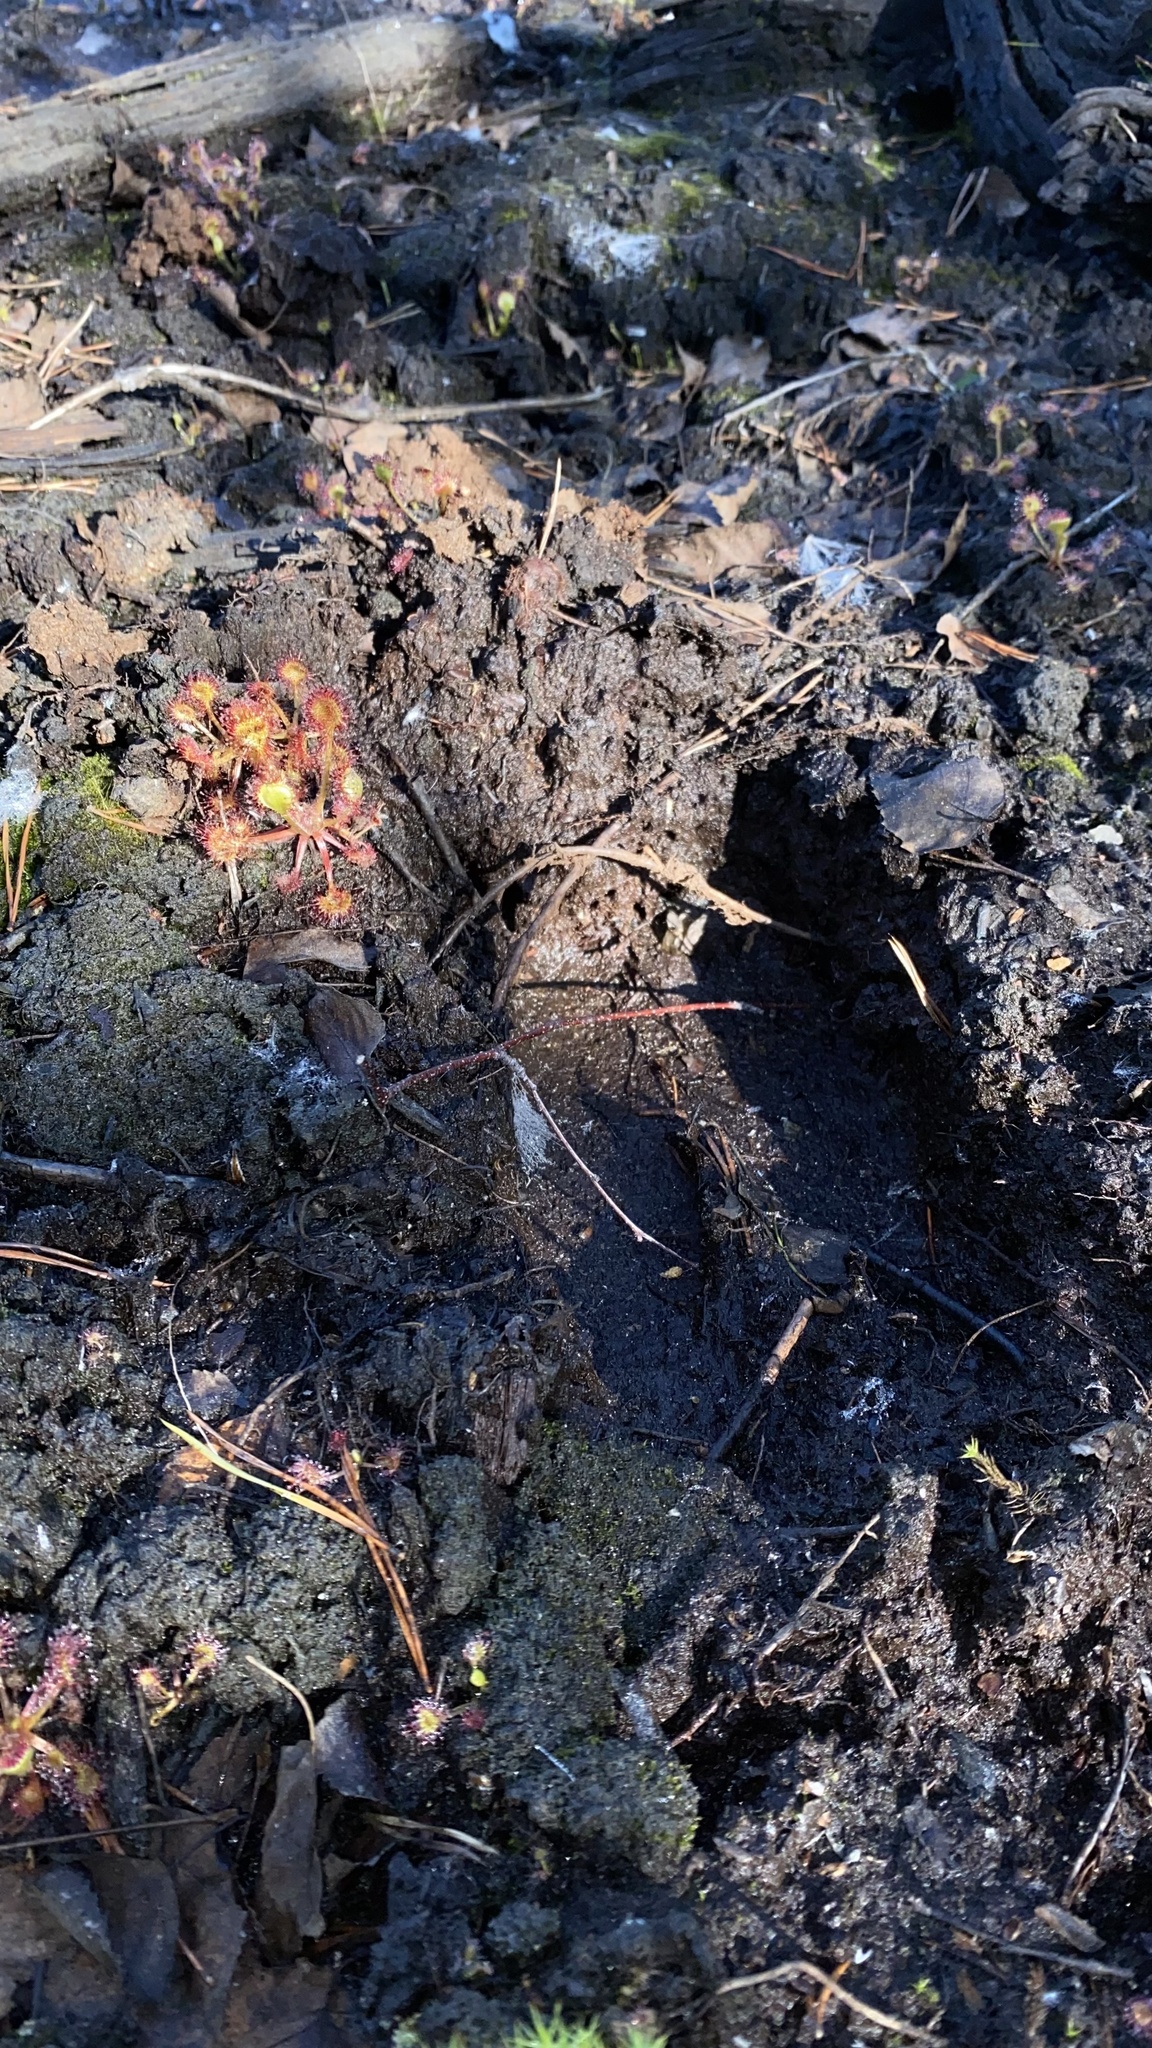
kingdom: Animalia
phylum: Chordata
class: Mammalia
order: Artiodactyla
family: Cervidae
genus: Alces
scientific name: Alces alces
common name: Moose
